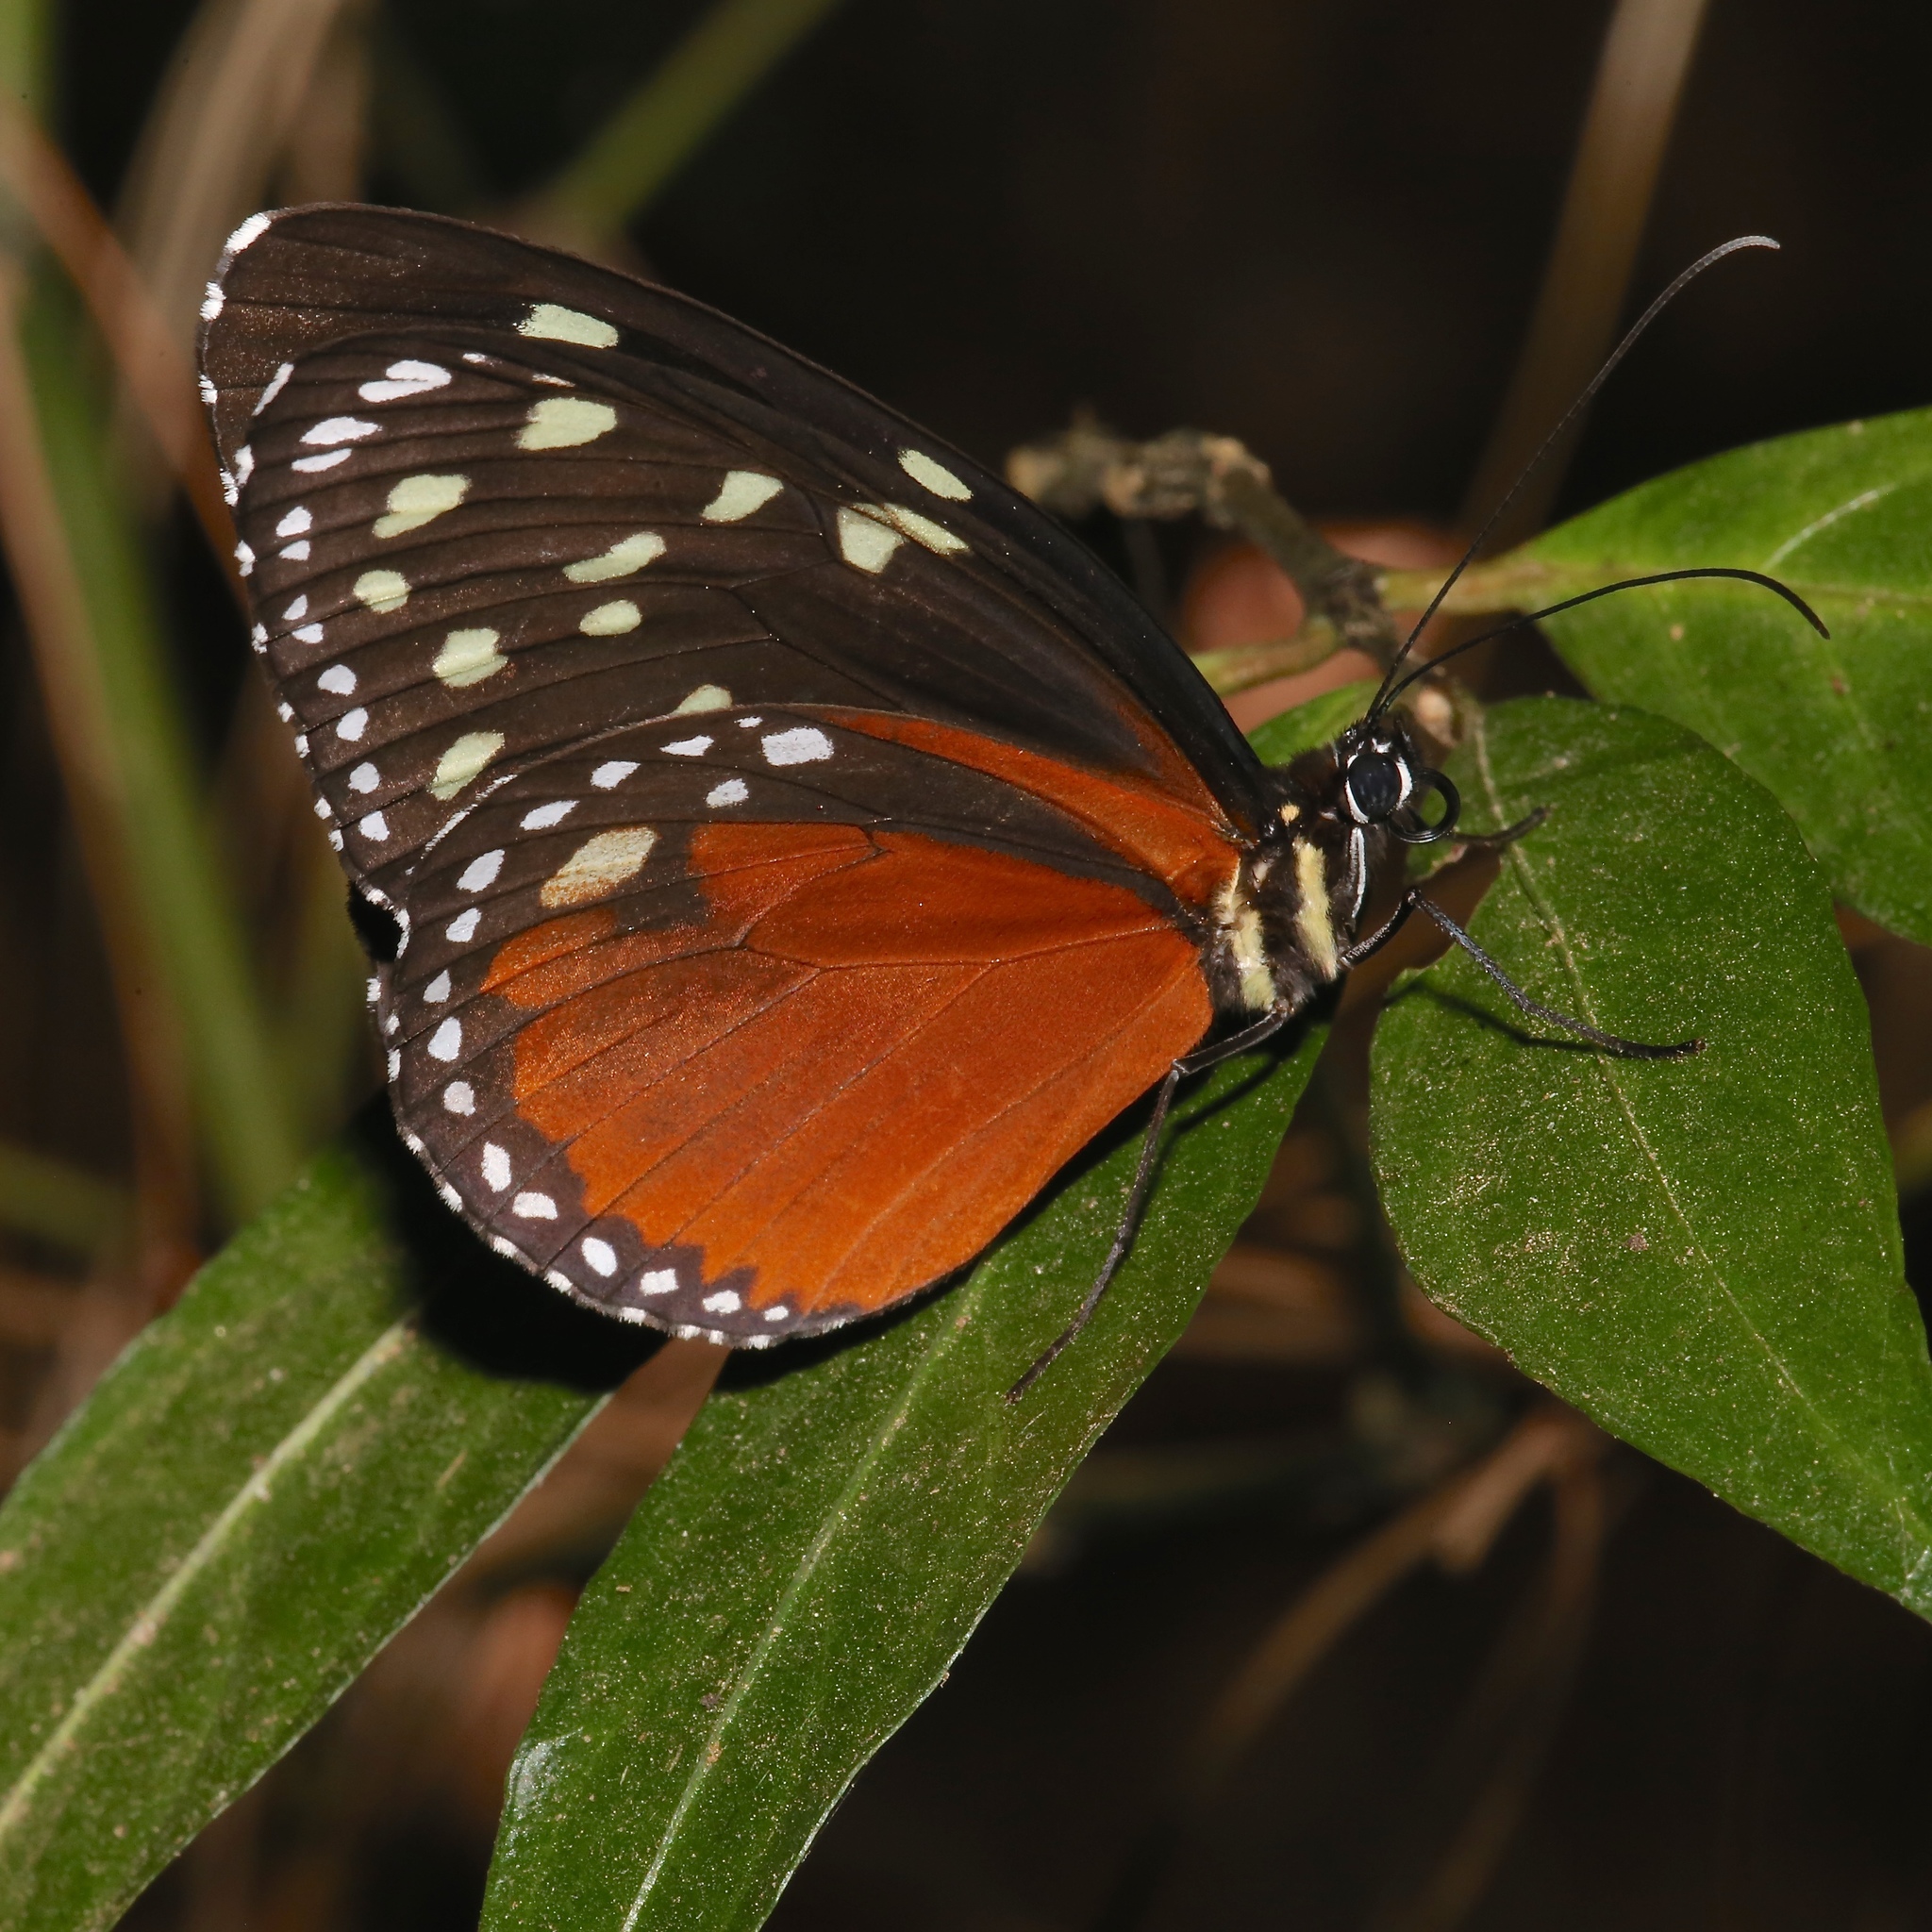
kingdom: Animalia
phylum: Arthropoda
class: Insecta
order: Lepidoptera
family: Nymphalidae
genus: Tithorea
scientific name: Tithorea tarricina
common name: Cream-spotted tigerwing
